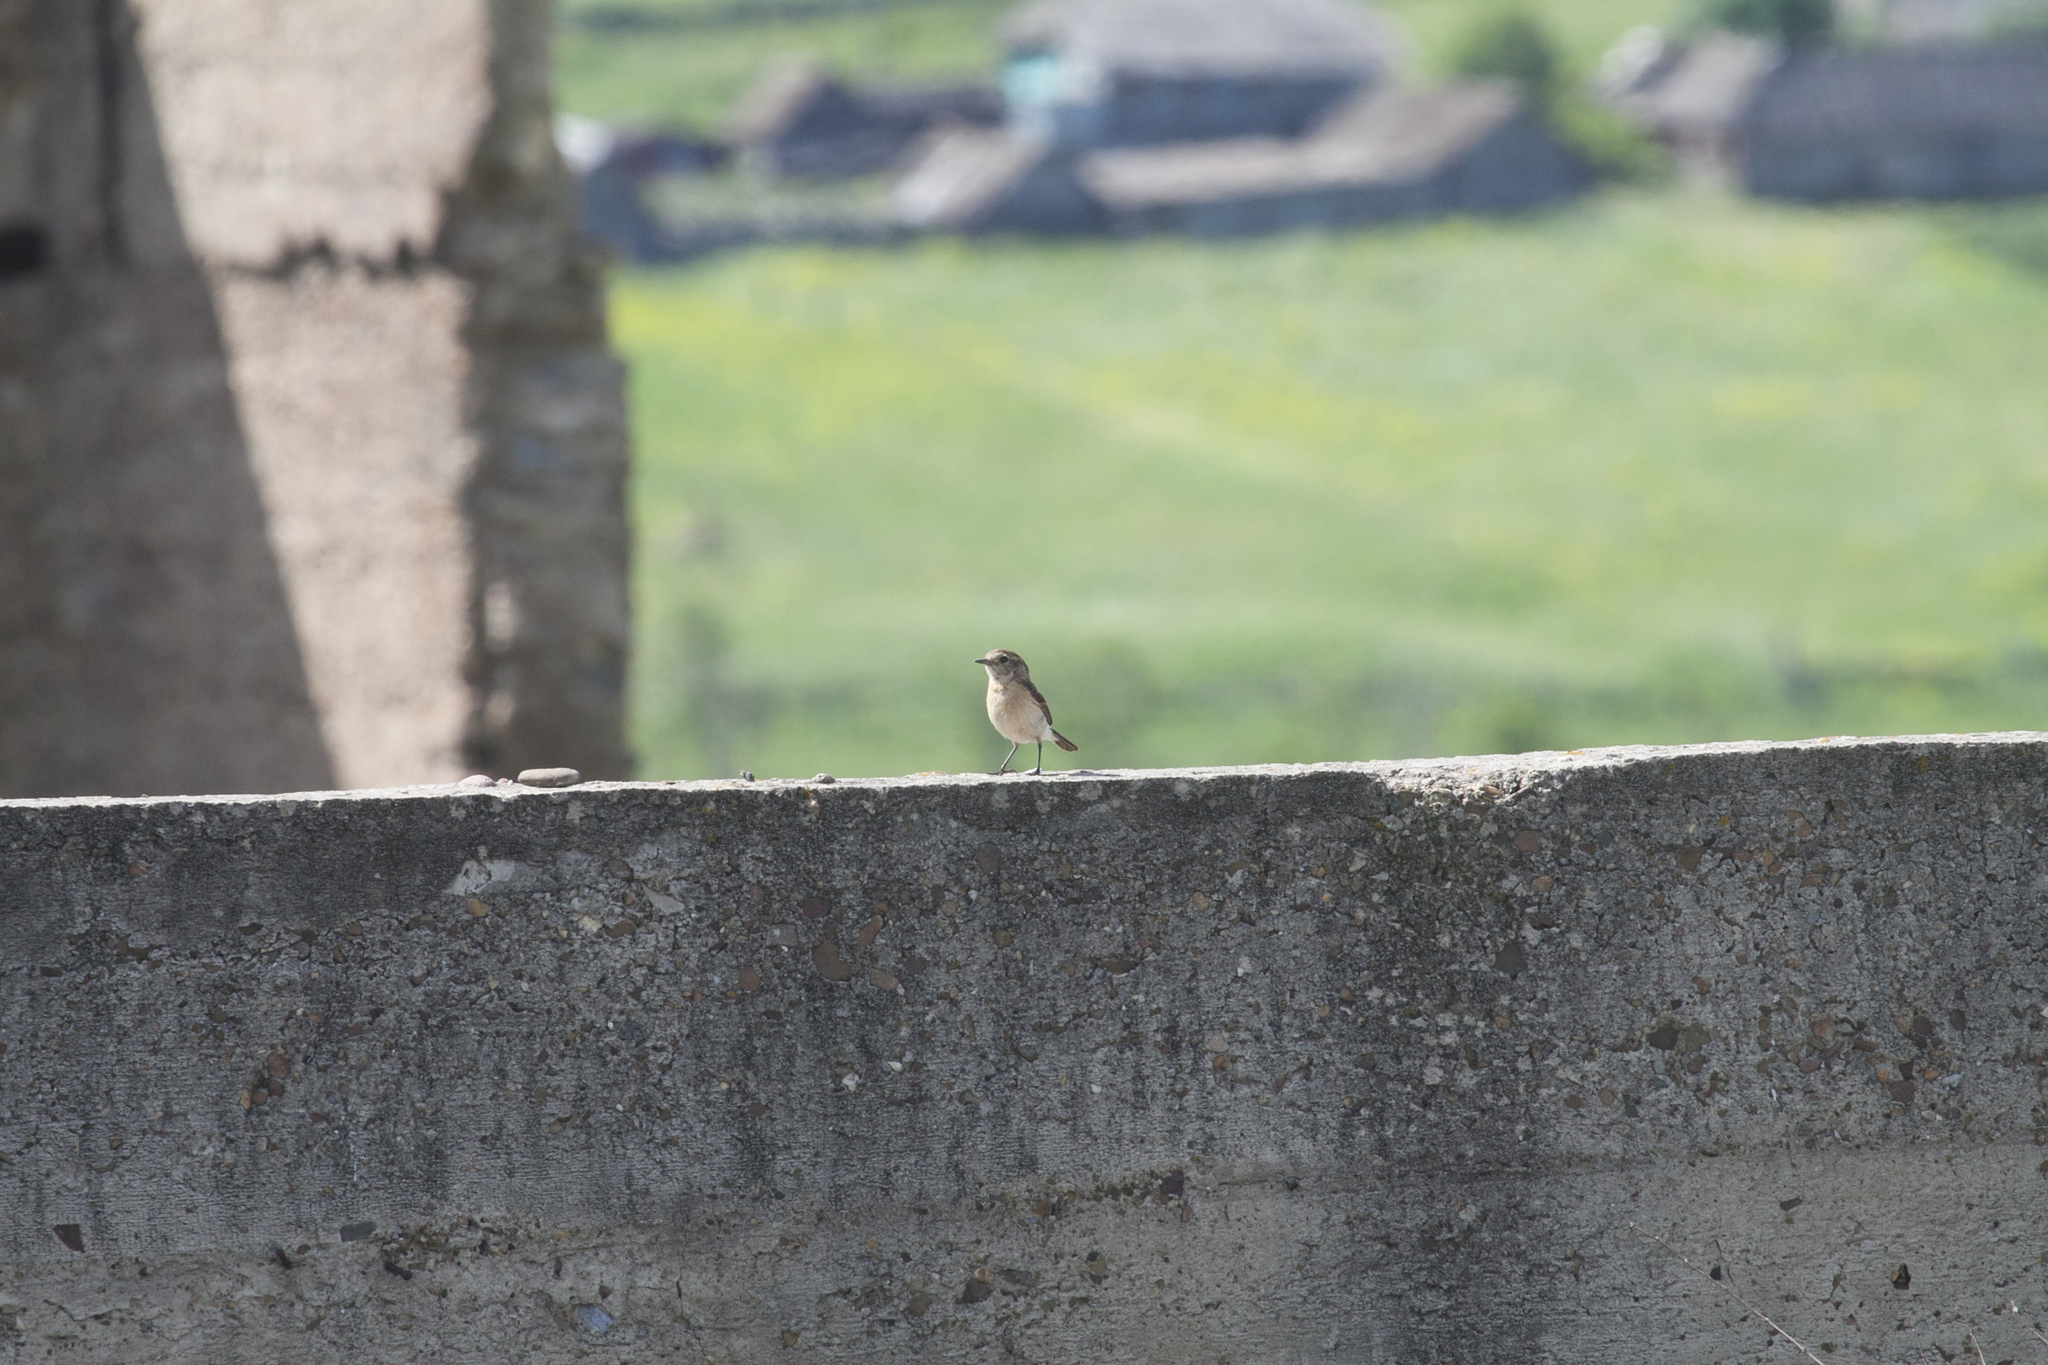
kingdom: Animalia
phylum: Chordata
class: Aves
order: Passeriformes
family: Muscicapidae
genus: Saxicola
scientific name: Saxicola maurus
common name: Siberian stonechat
